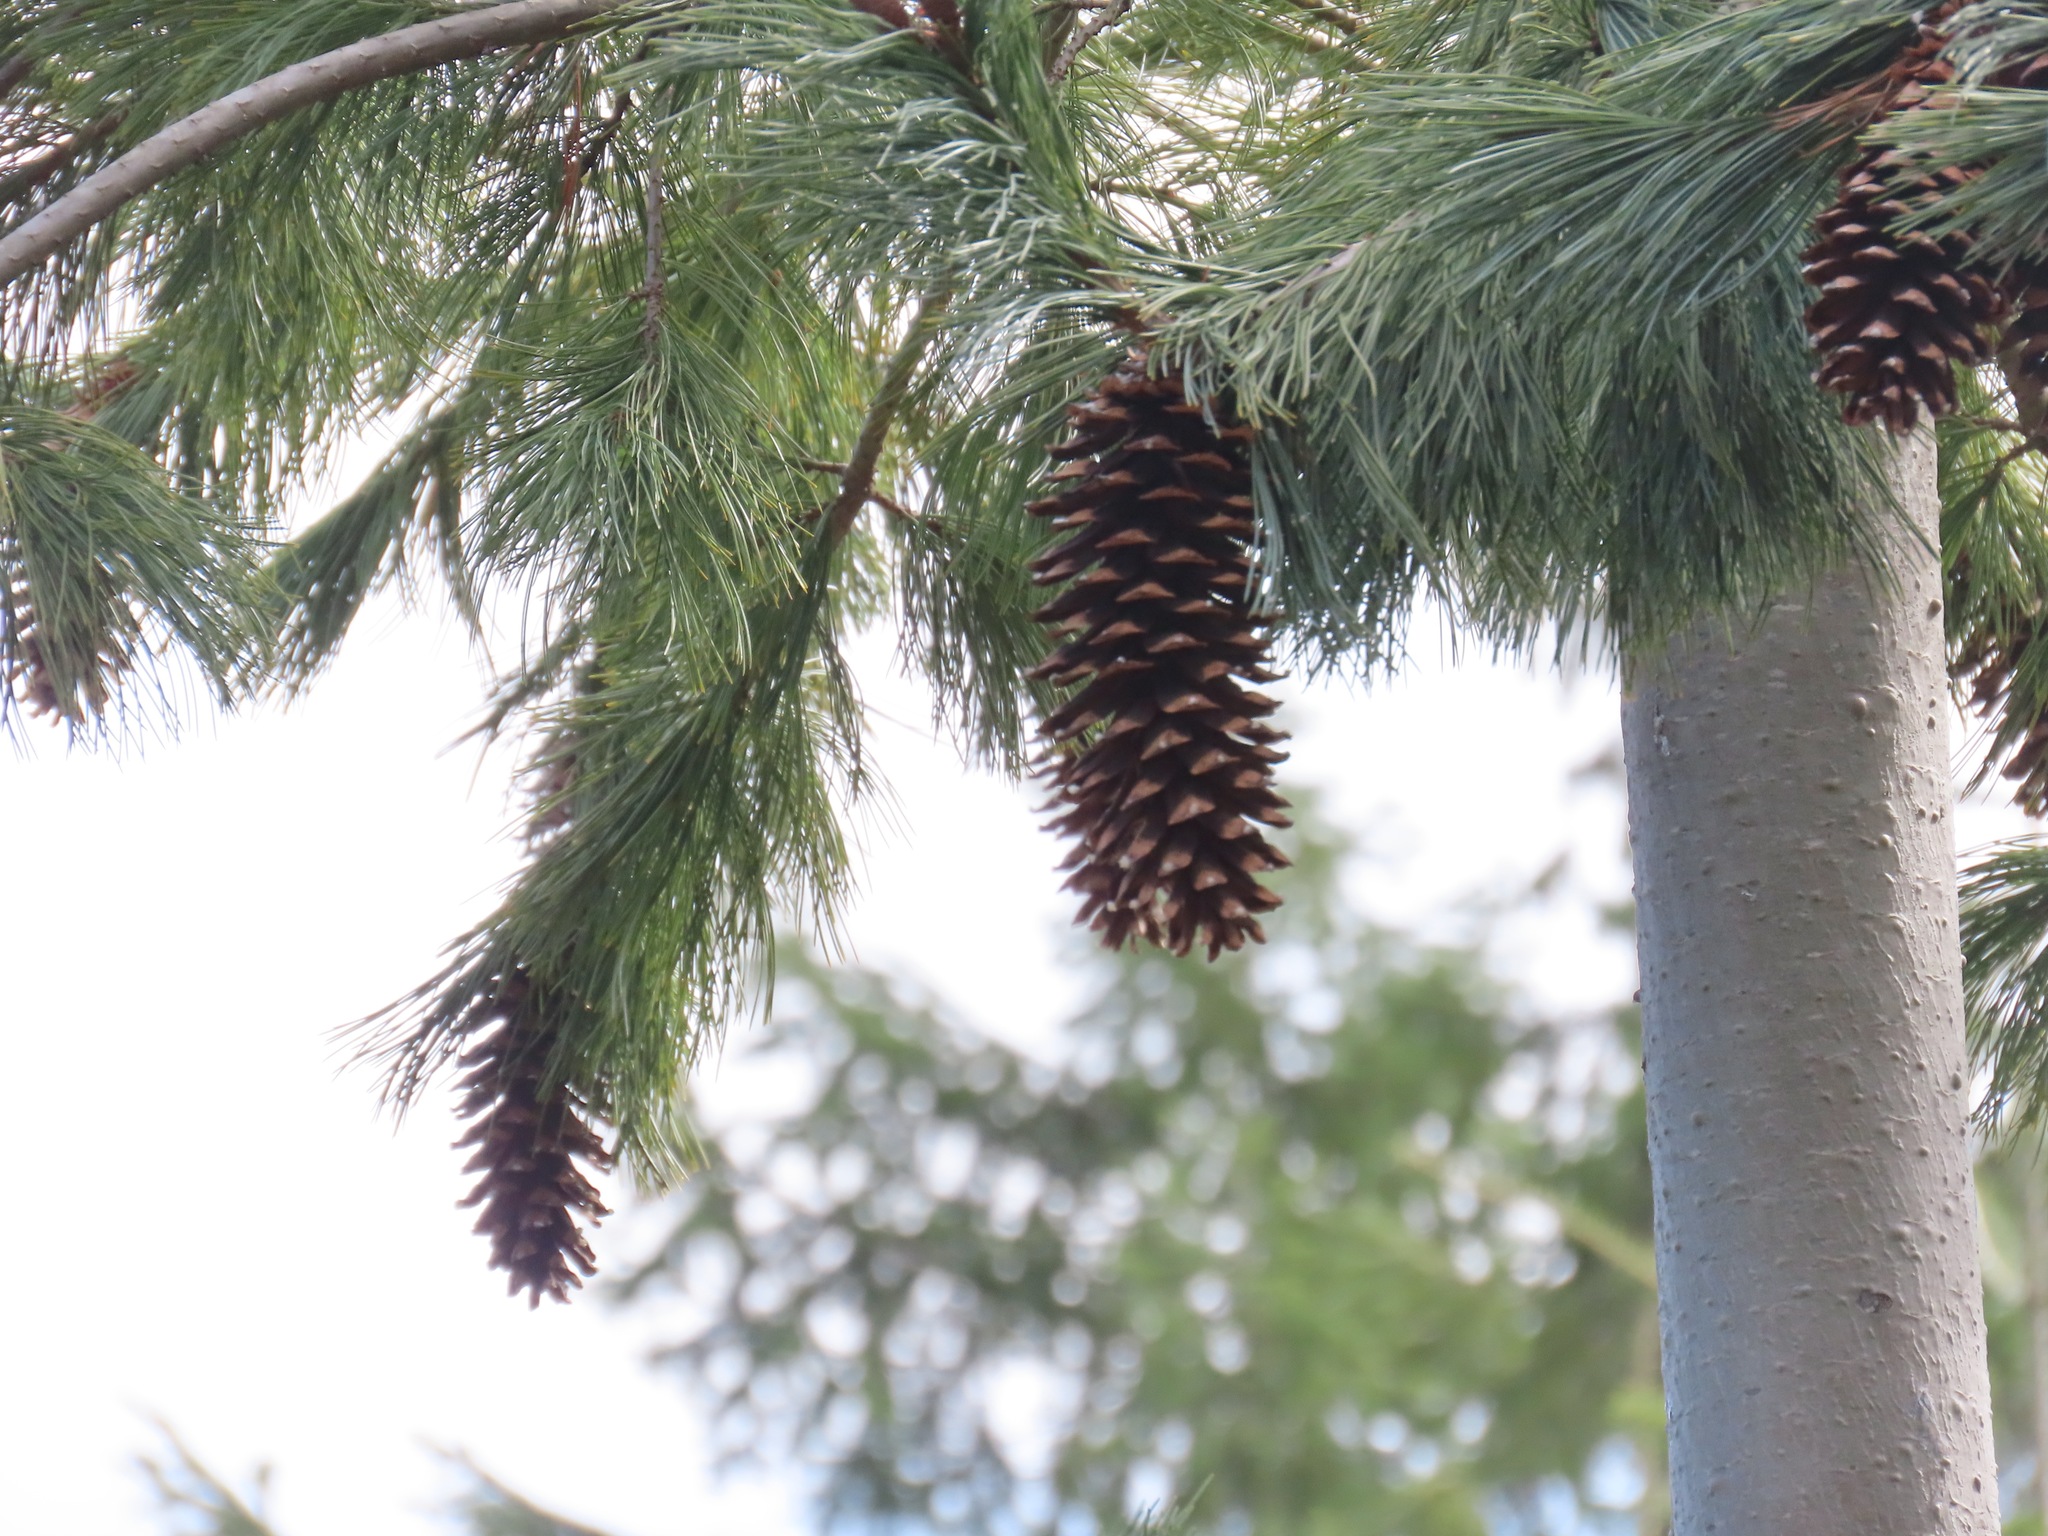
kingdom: Plantae
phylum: Tracheophyta
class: Pinopsida
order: Pinales
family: Pinaceae
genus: Pinus
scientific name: Pinus monticola
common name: Western white pine
